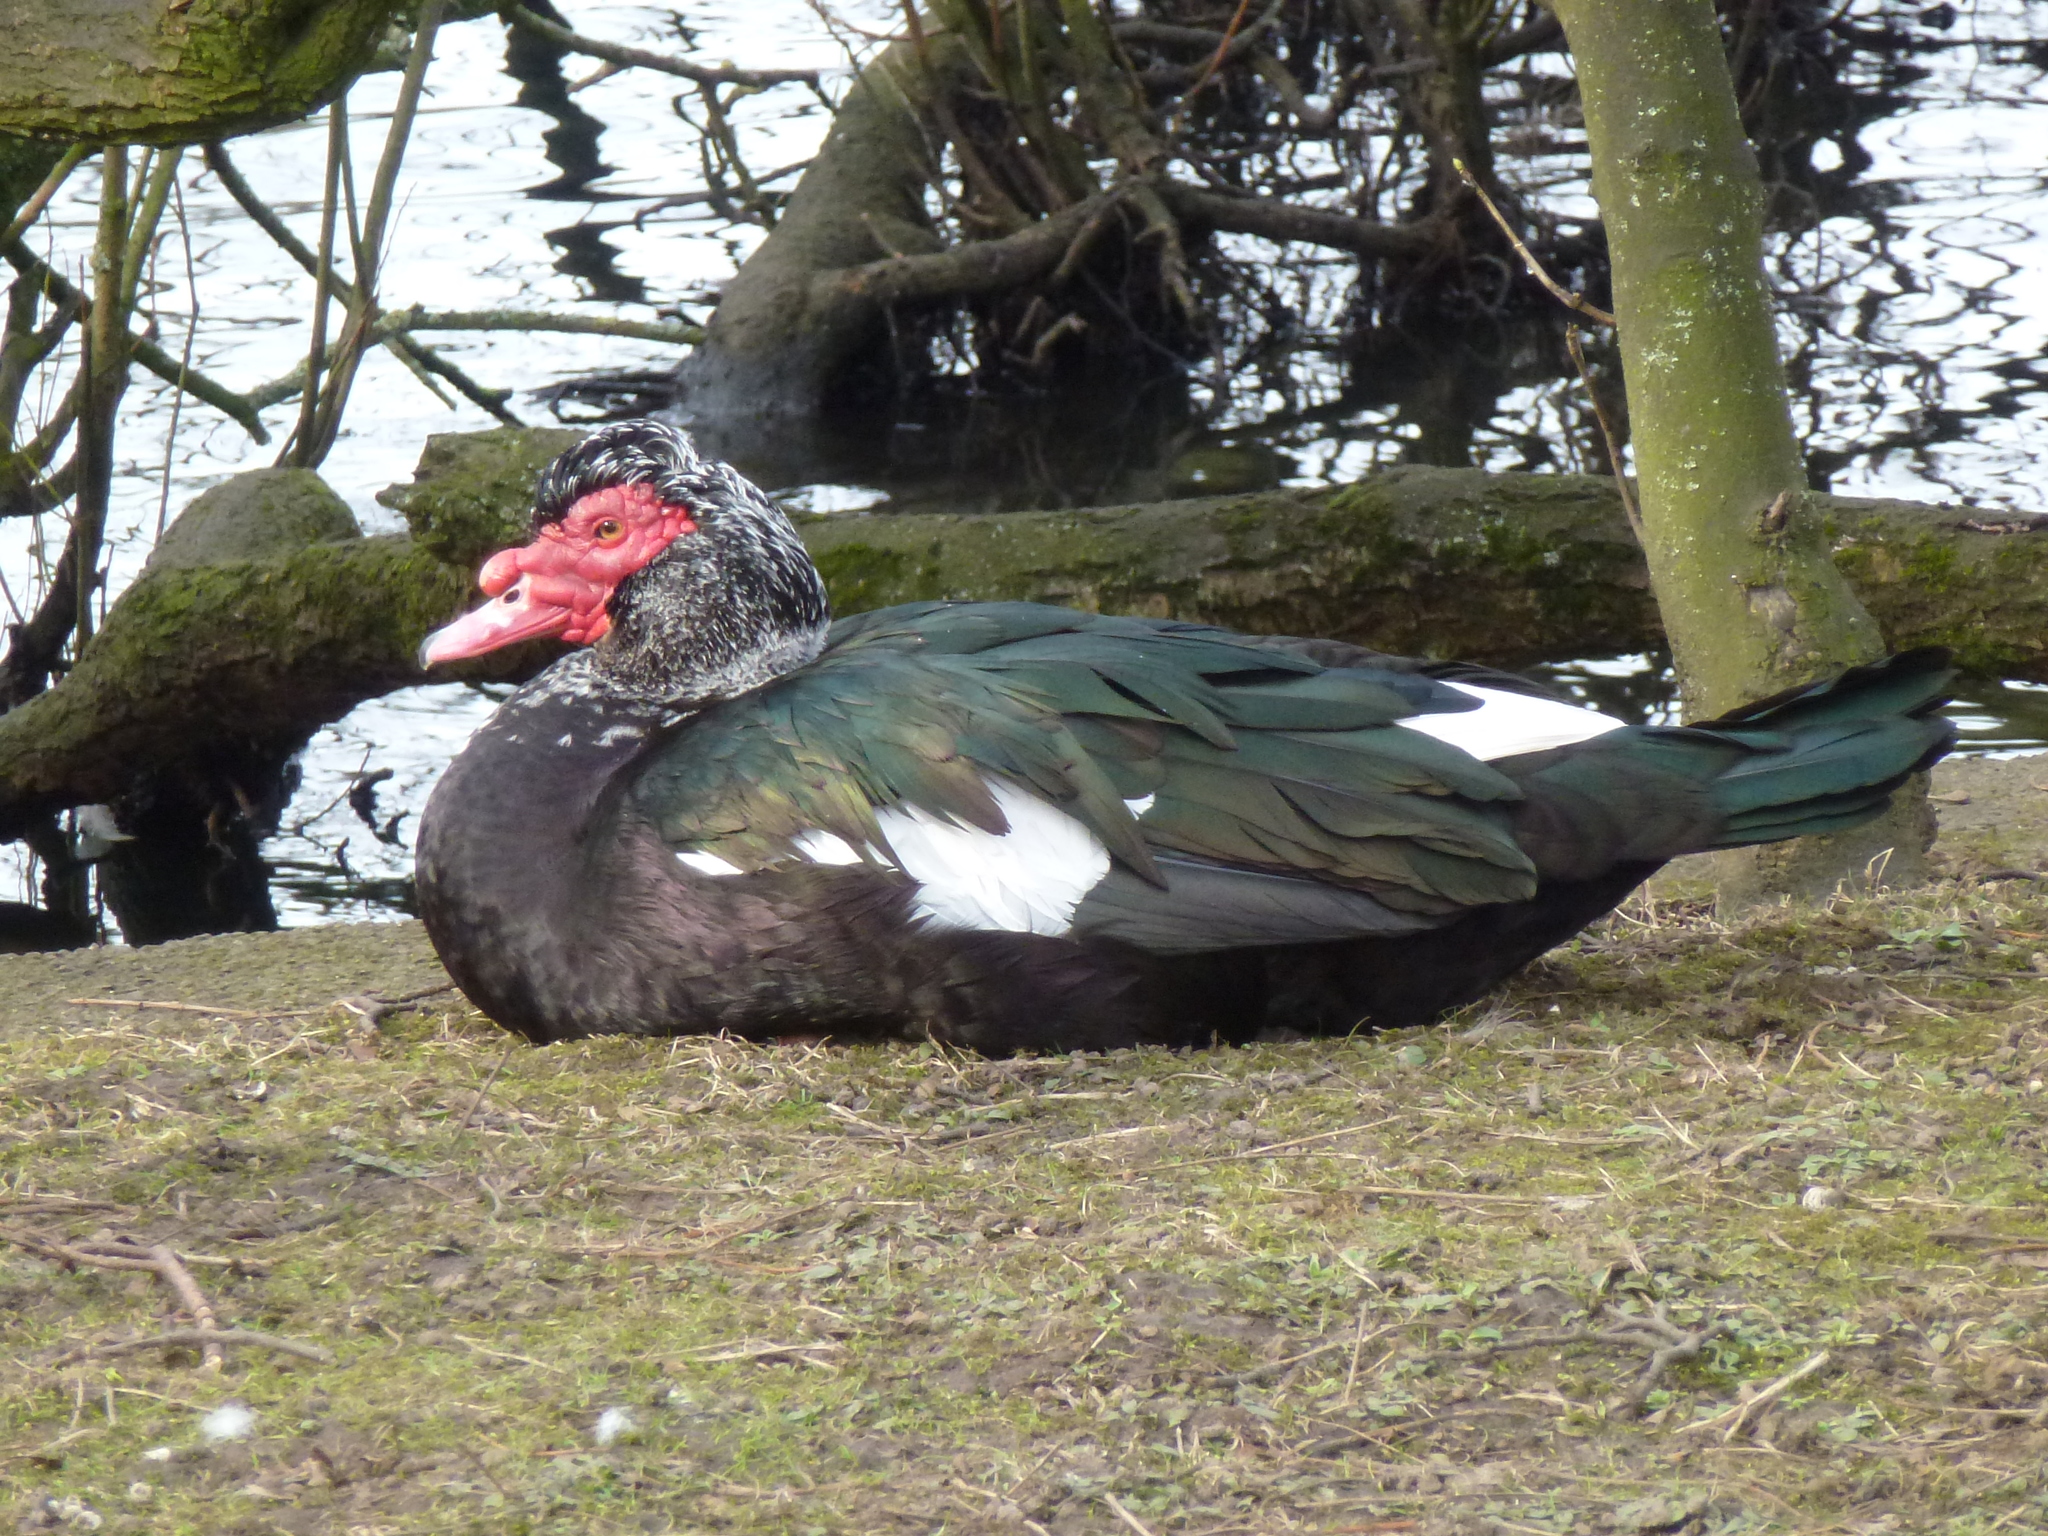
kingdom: Animalia
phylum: Chordata
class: Aves
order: Anseriformes
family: Anatidae
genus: Cairina
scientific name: Cairina moschata
